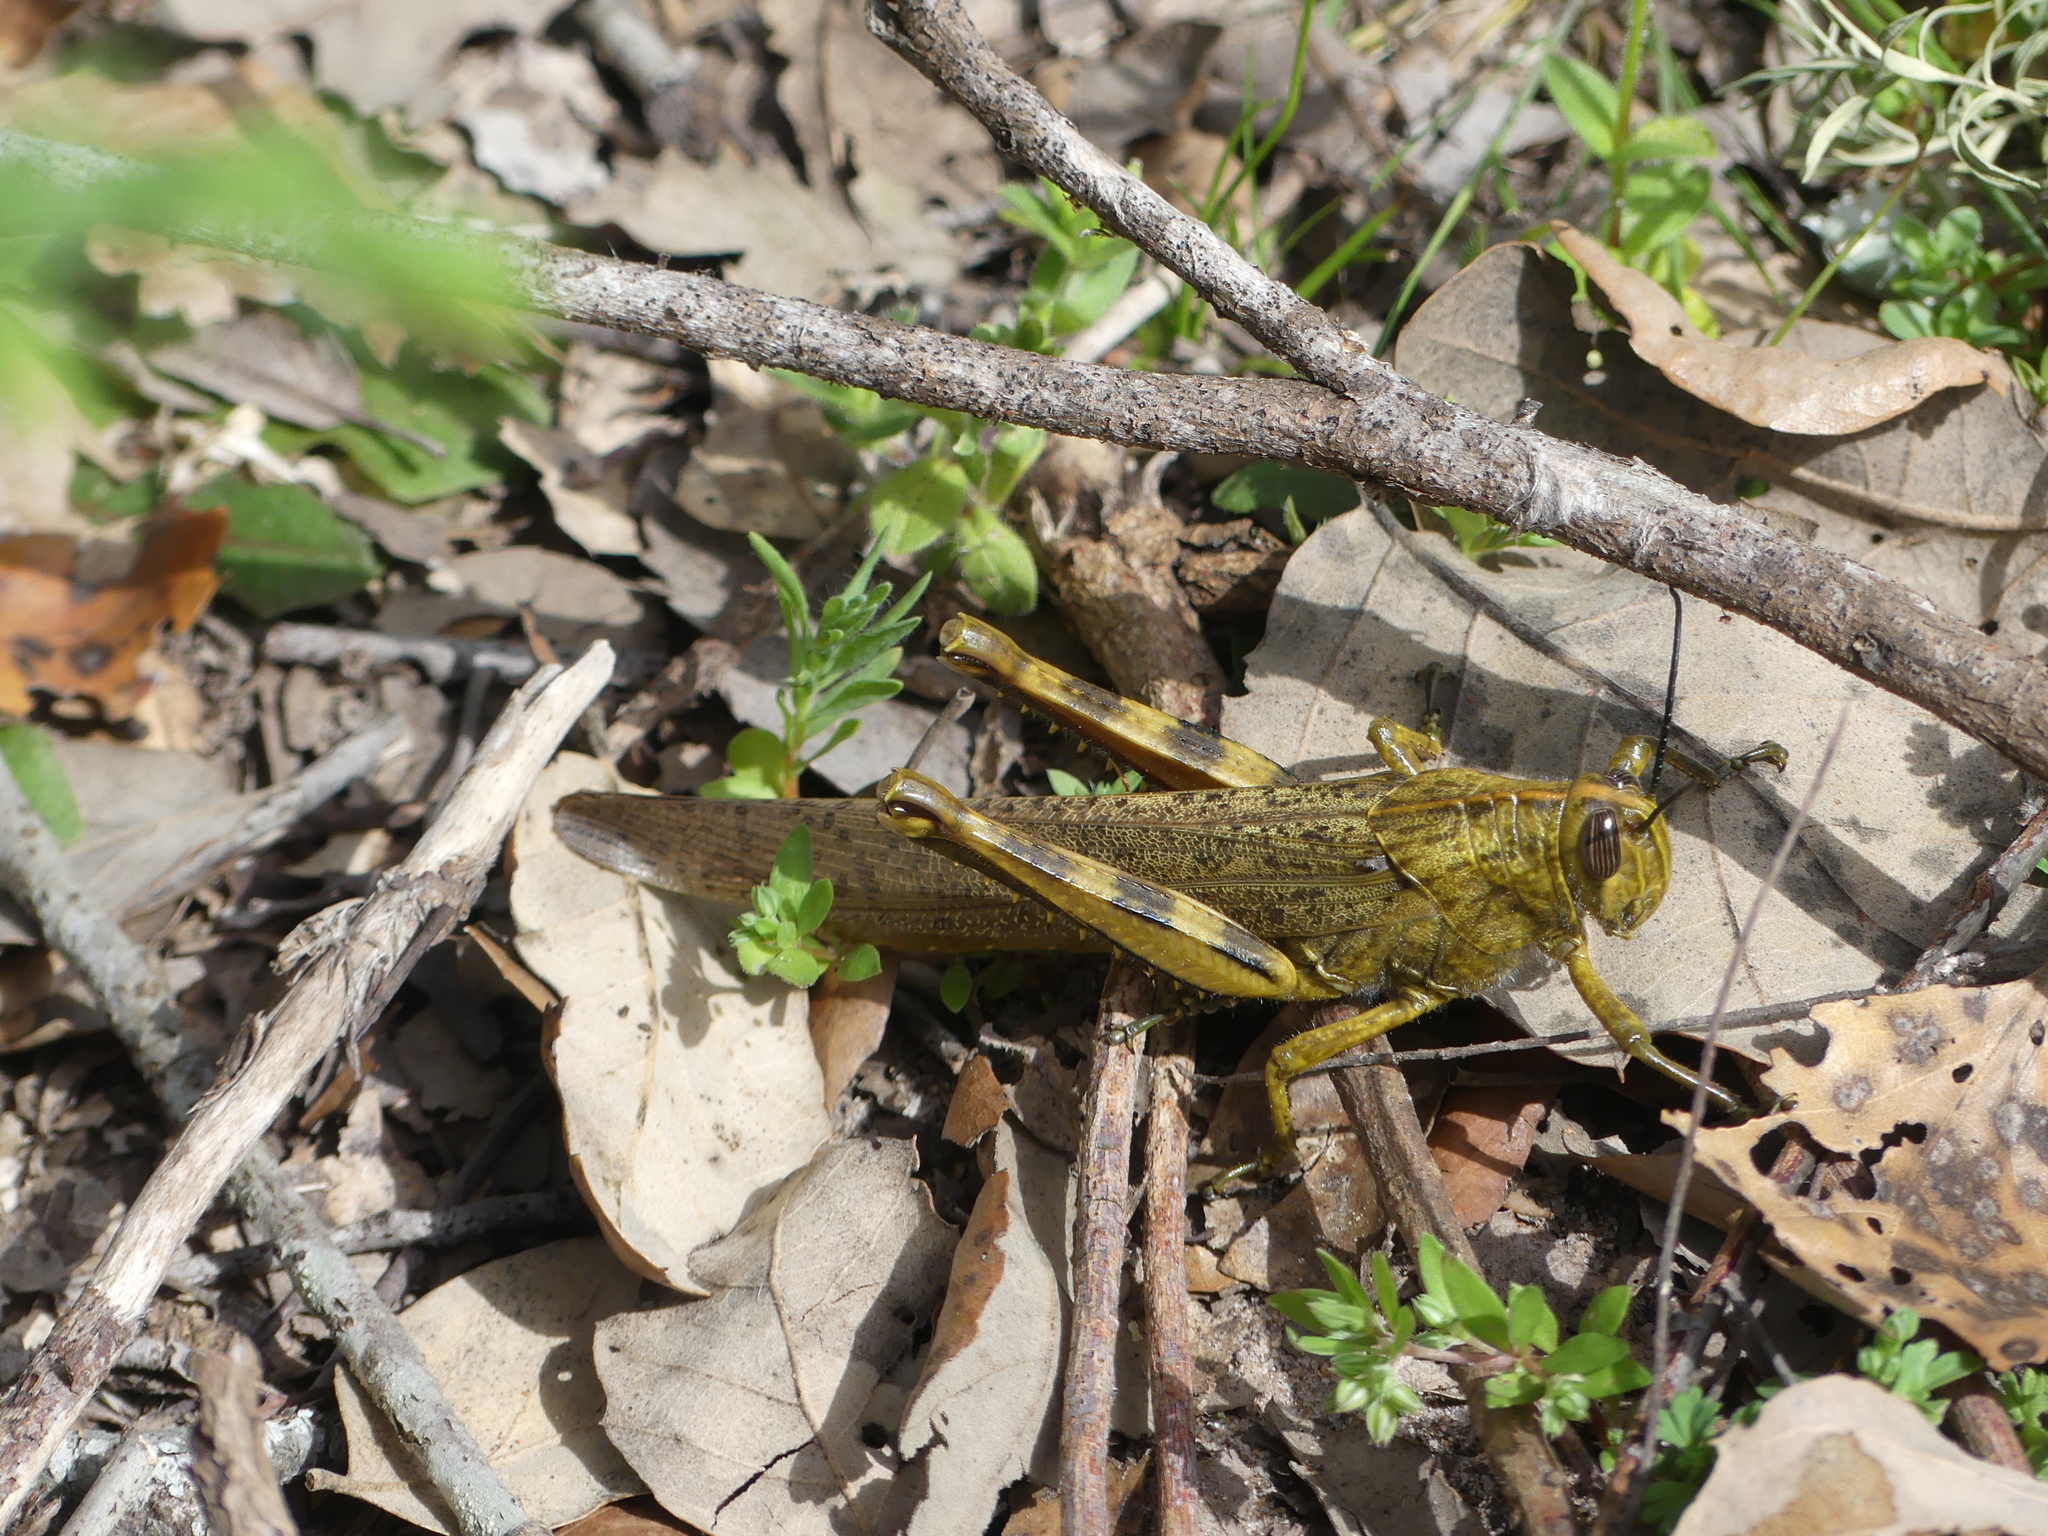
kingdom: Animalia
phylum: Arthropoda
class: Insecta
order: Orthoptera
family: Acrididae
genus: Anacridium
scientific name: Anacridium aegyptium
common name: Egyptian grasshopper
